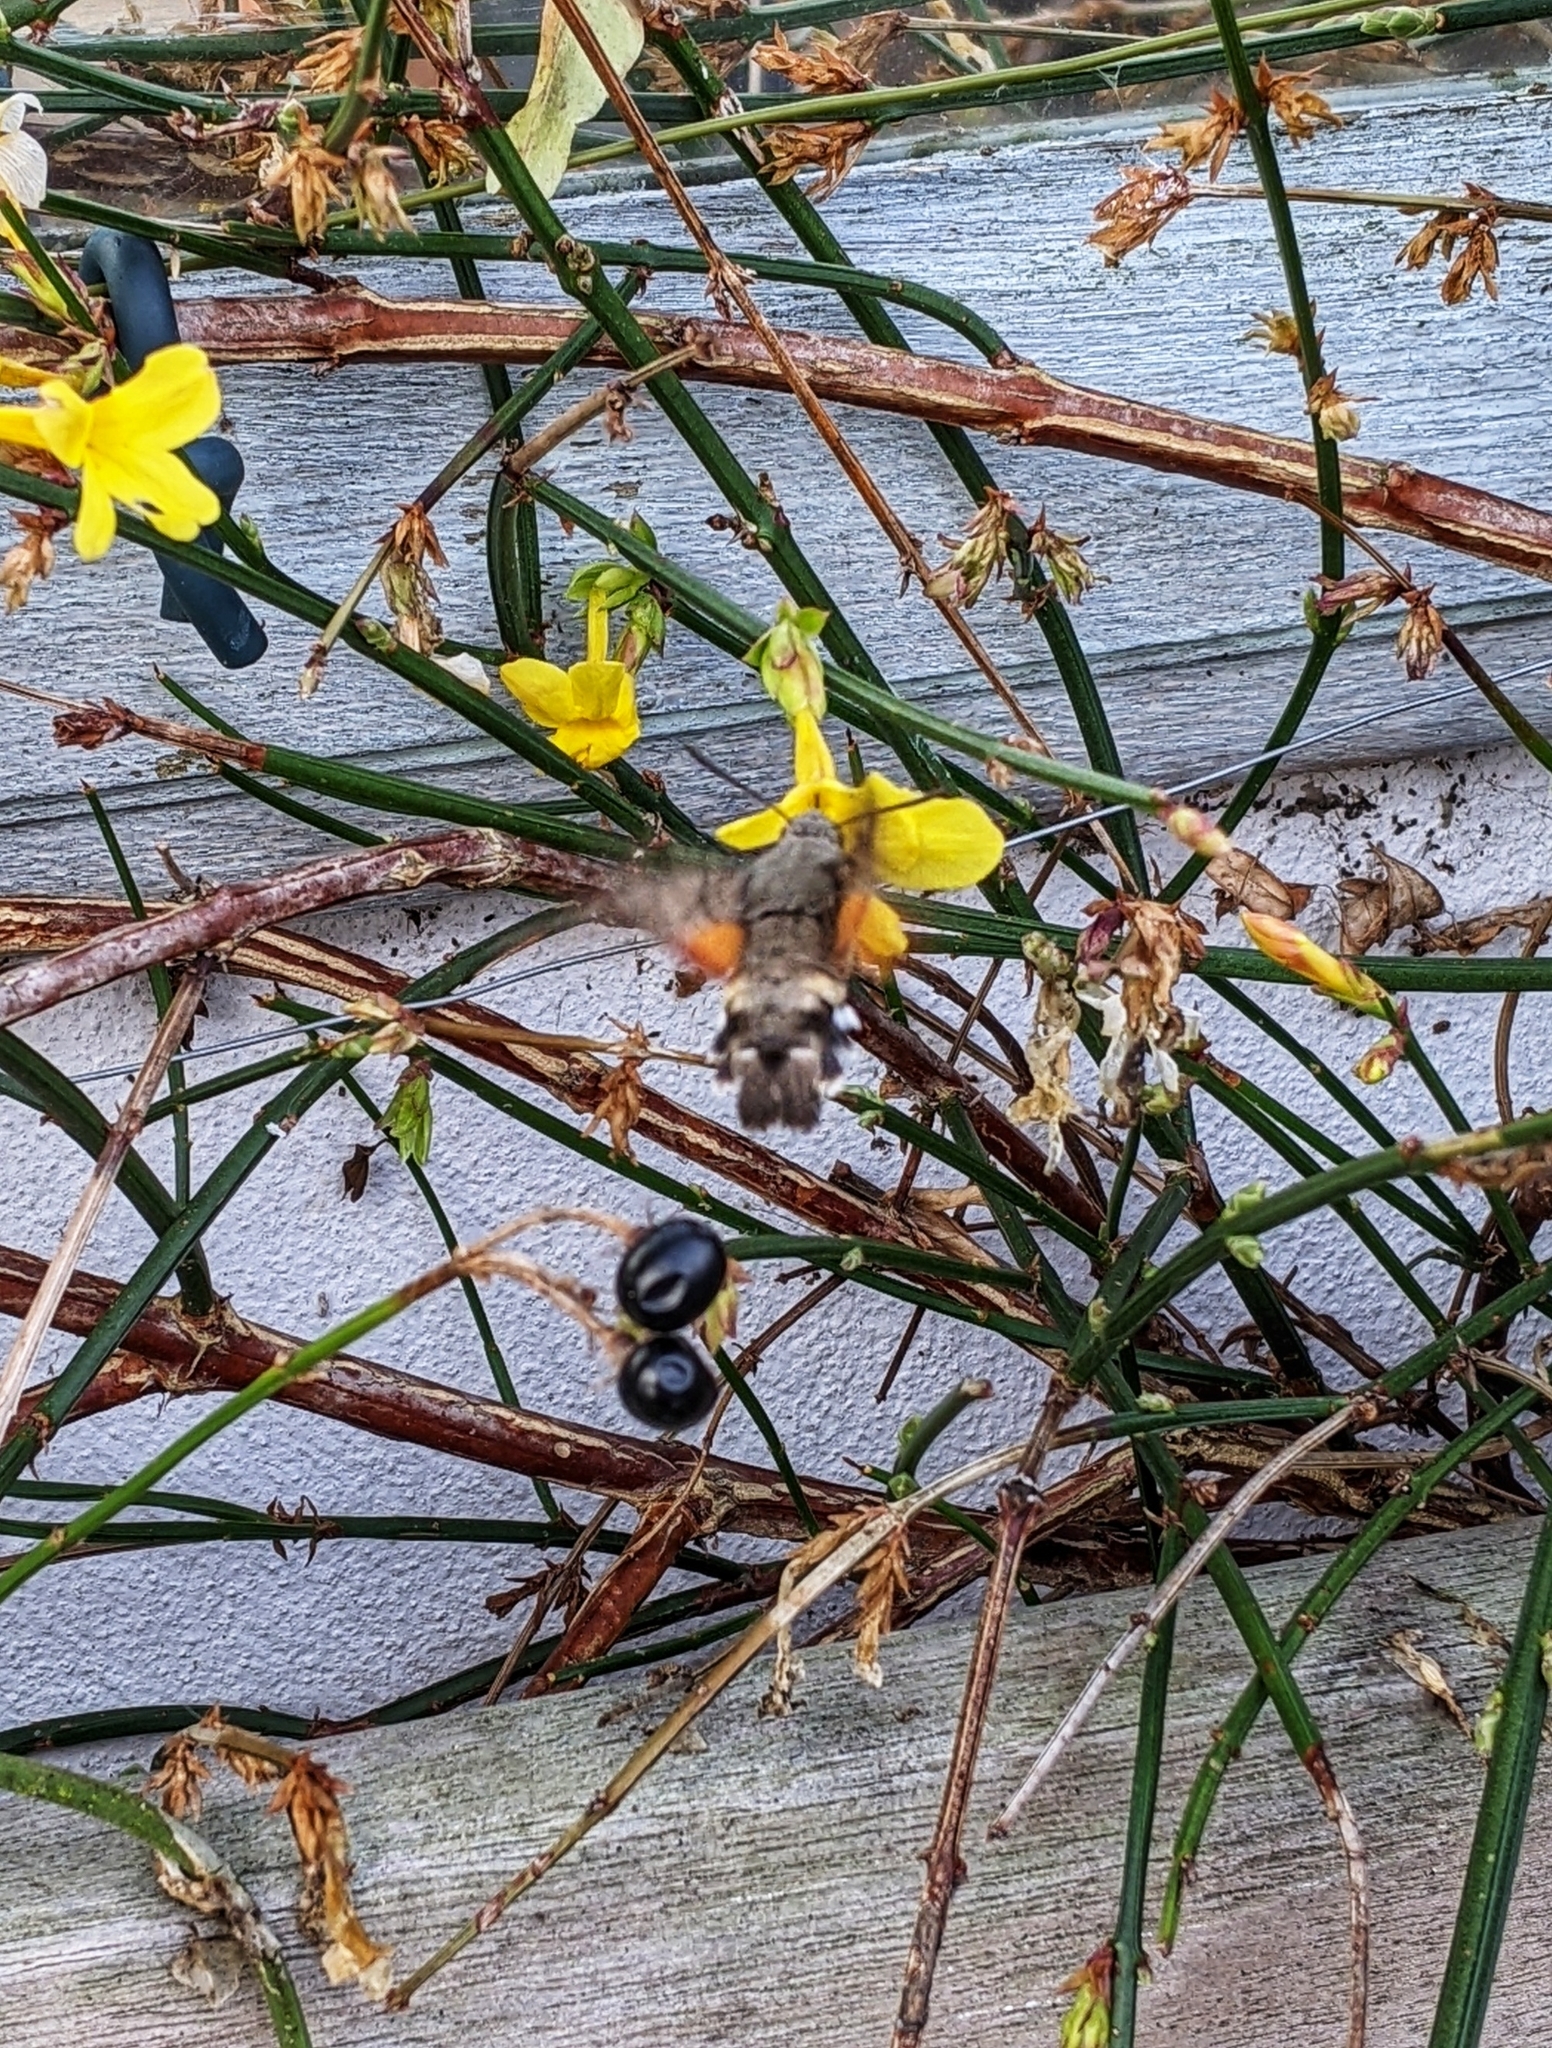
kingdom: Animalia
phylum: Arthropoda
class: Insecta
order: Lepidoptera
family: Sphingidae
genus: Macroglossum
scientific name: Macroglossum stellatarum
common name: Humming-bird hawk-moth
